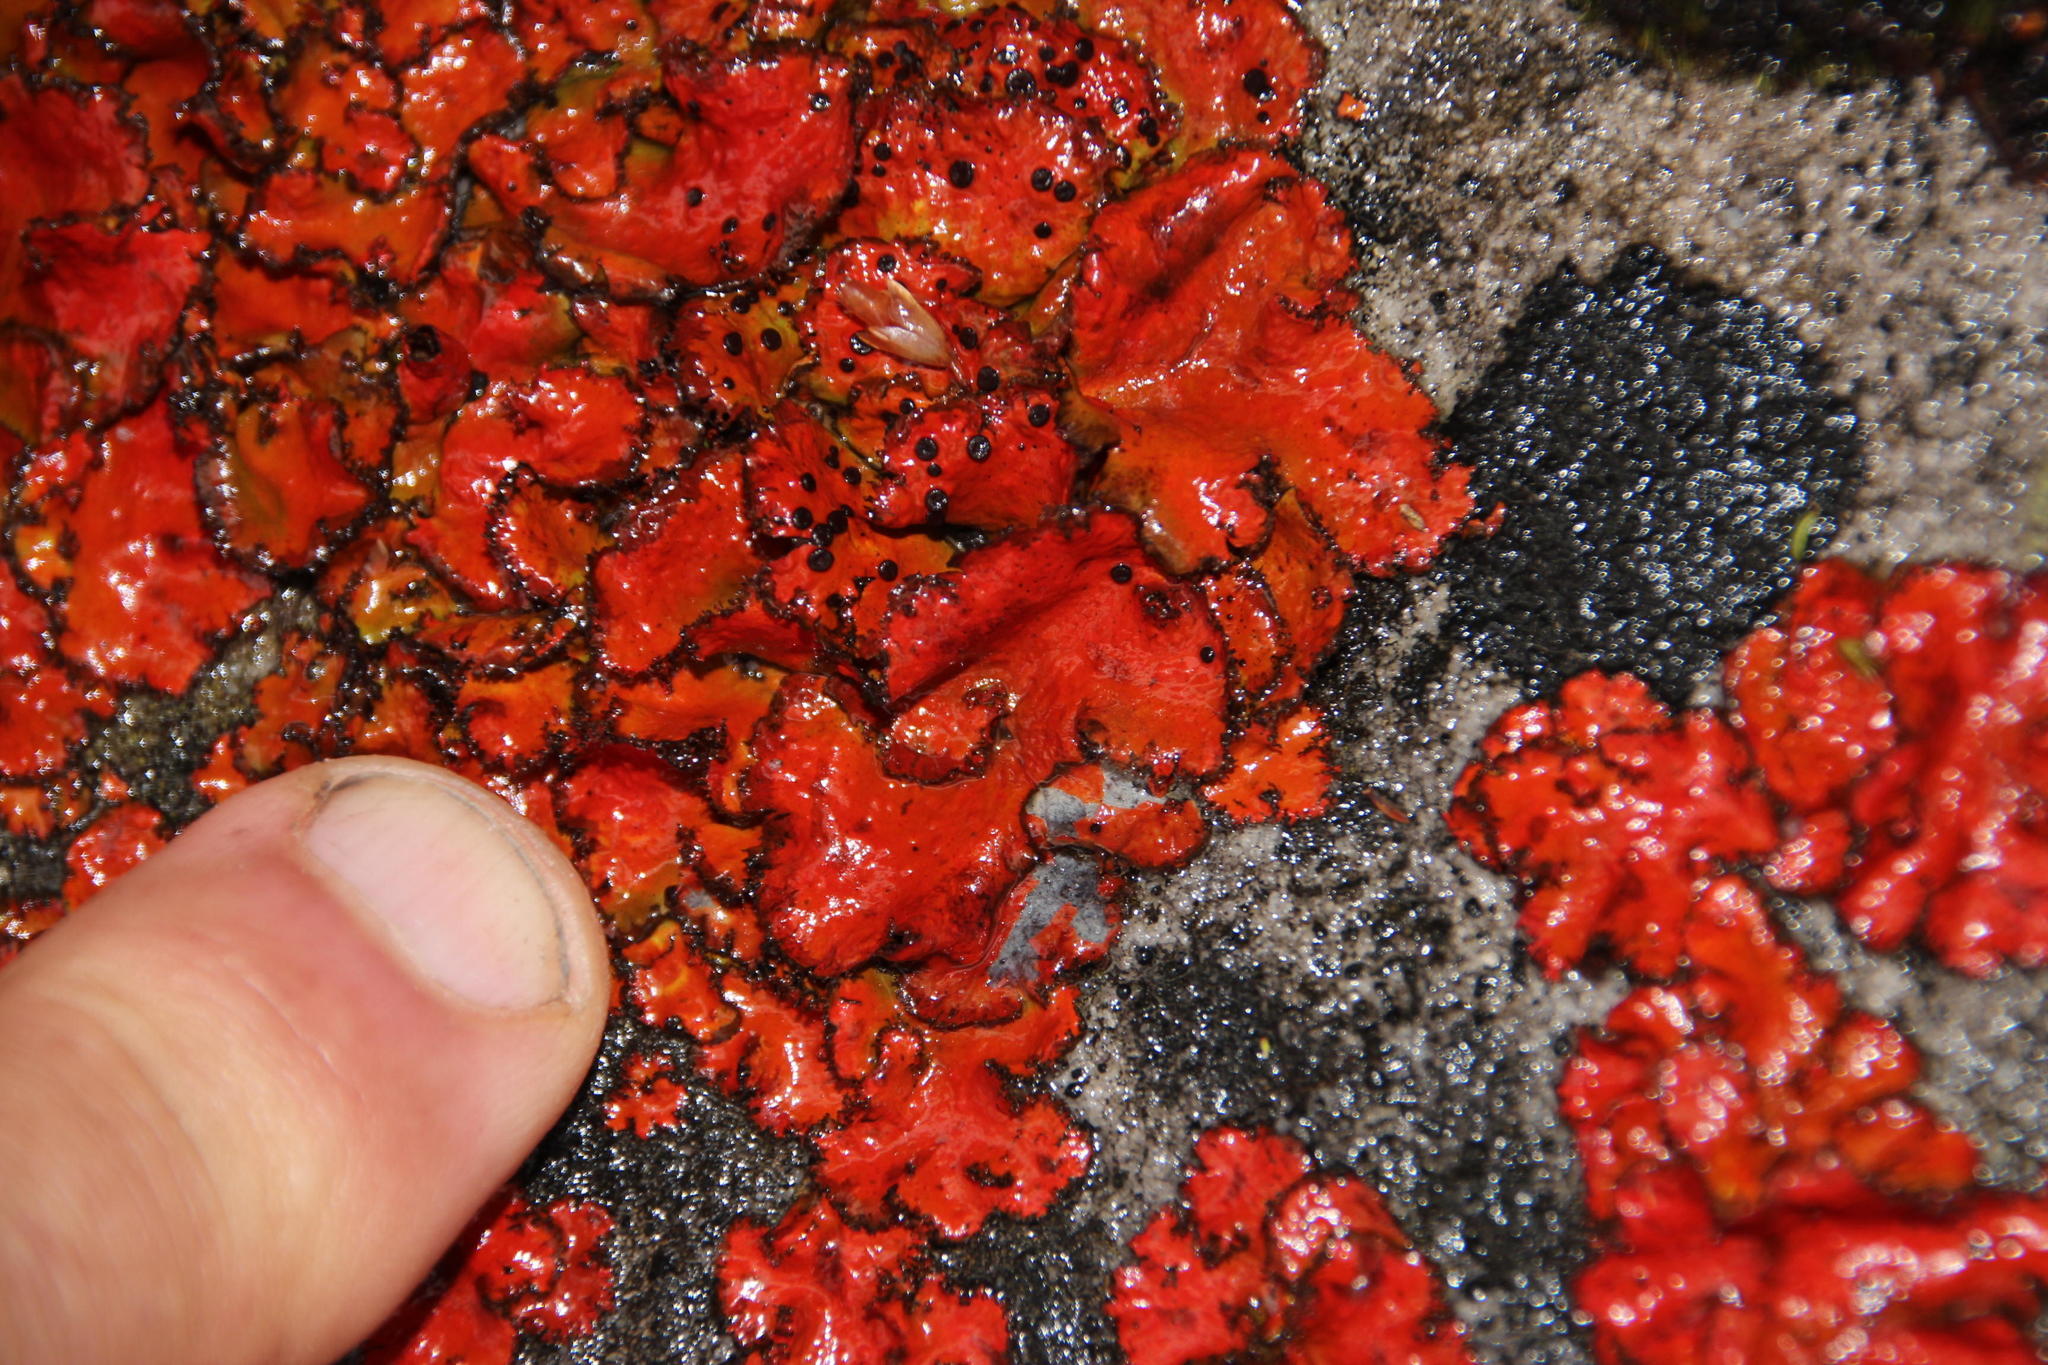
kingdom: Fungi
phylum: Ascomycota
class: Lecanoromycetes
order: Umbilicariales
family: Umbilicariaceae
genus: Lasallia
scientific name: Lasallia rubiginosa
